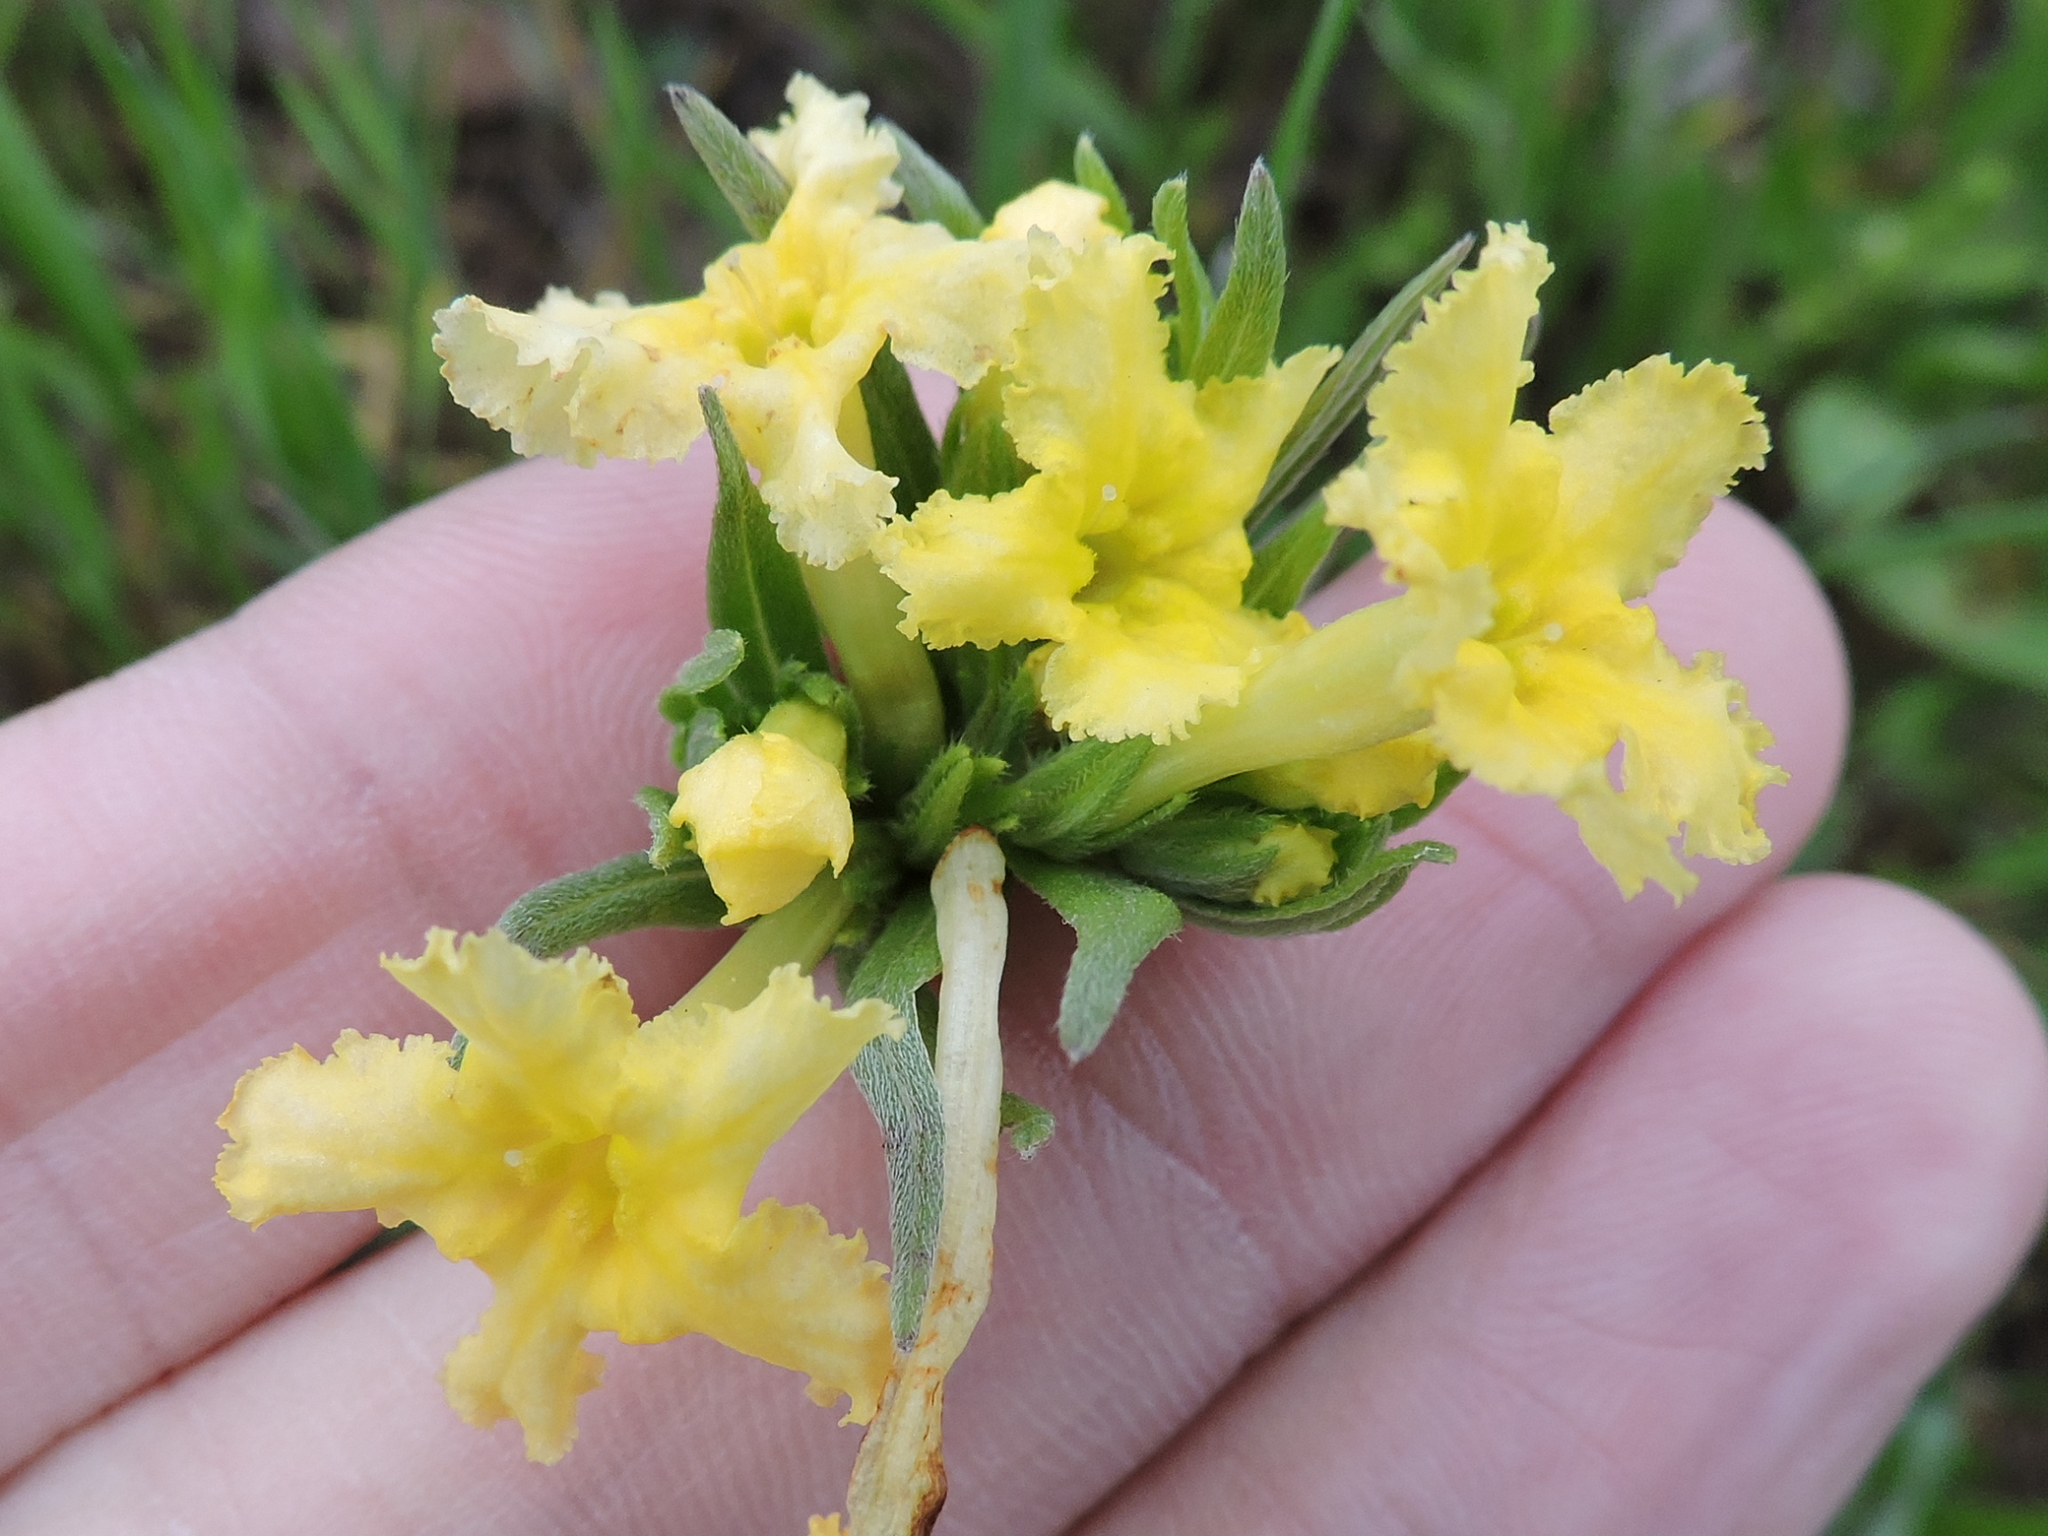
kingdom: Plantae
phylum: Tracheophyta
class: Magnoliopsida
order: Boraginales
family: Boraginaceae
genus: Lithospermum
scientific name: Lithospermum incisum
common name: Fringed gromwell
